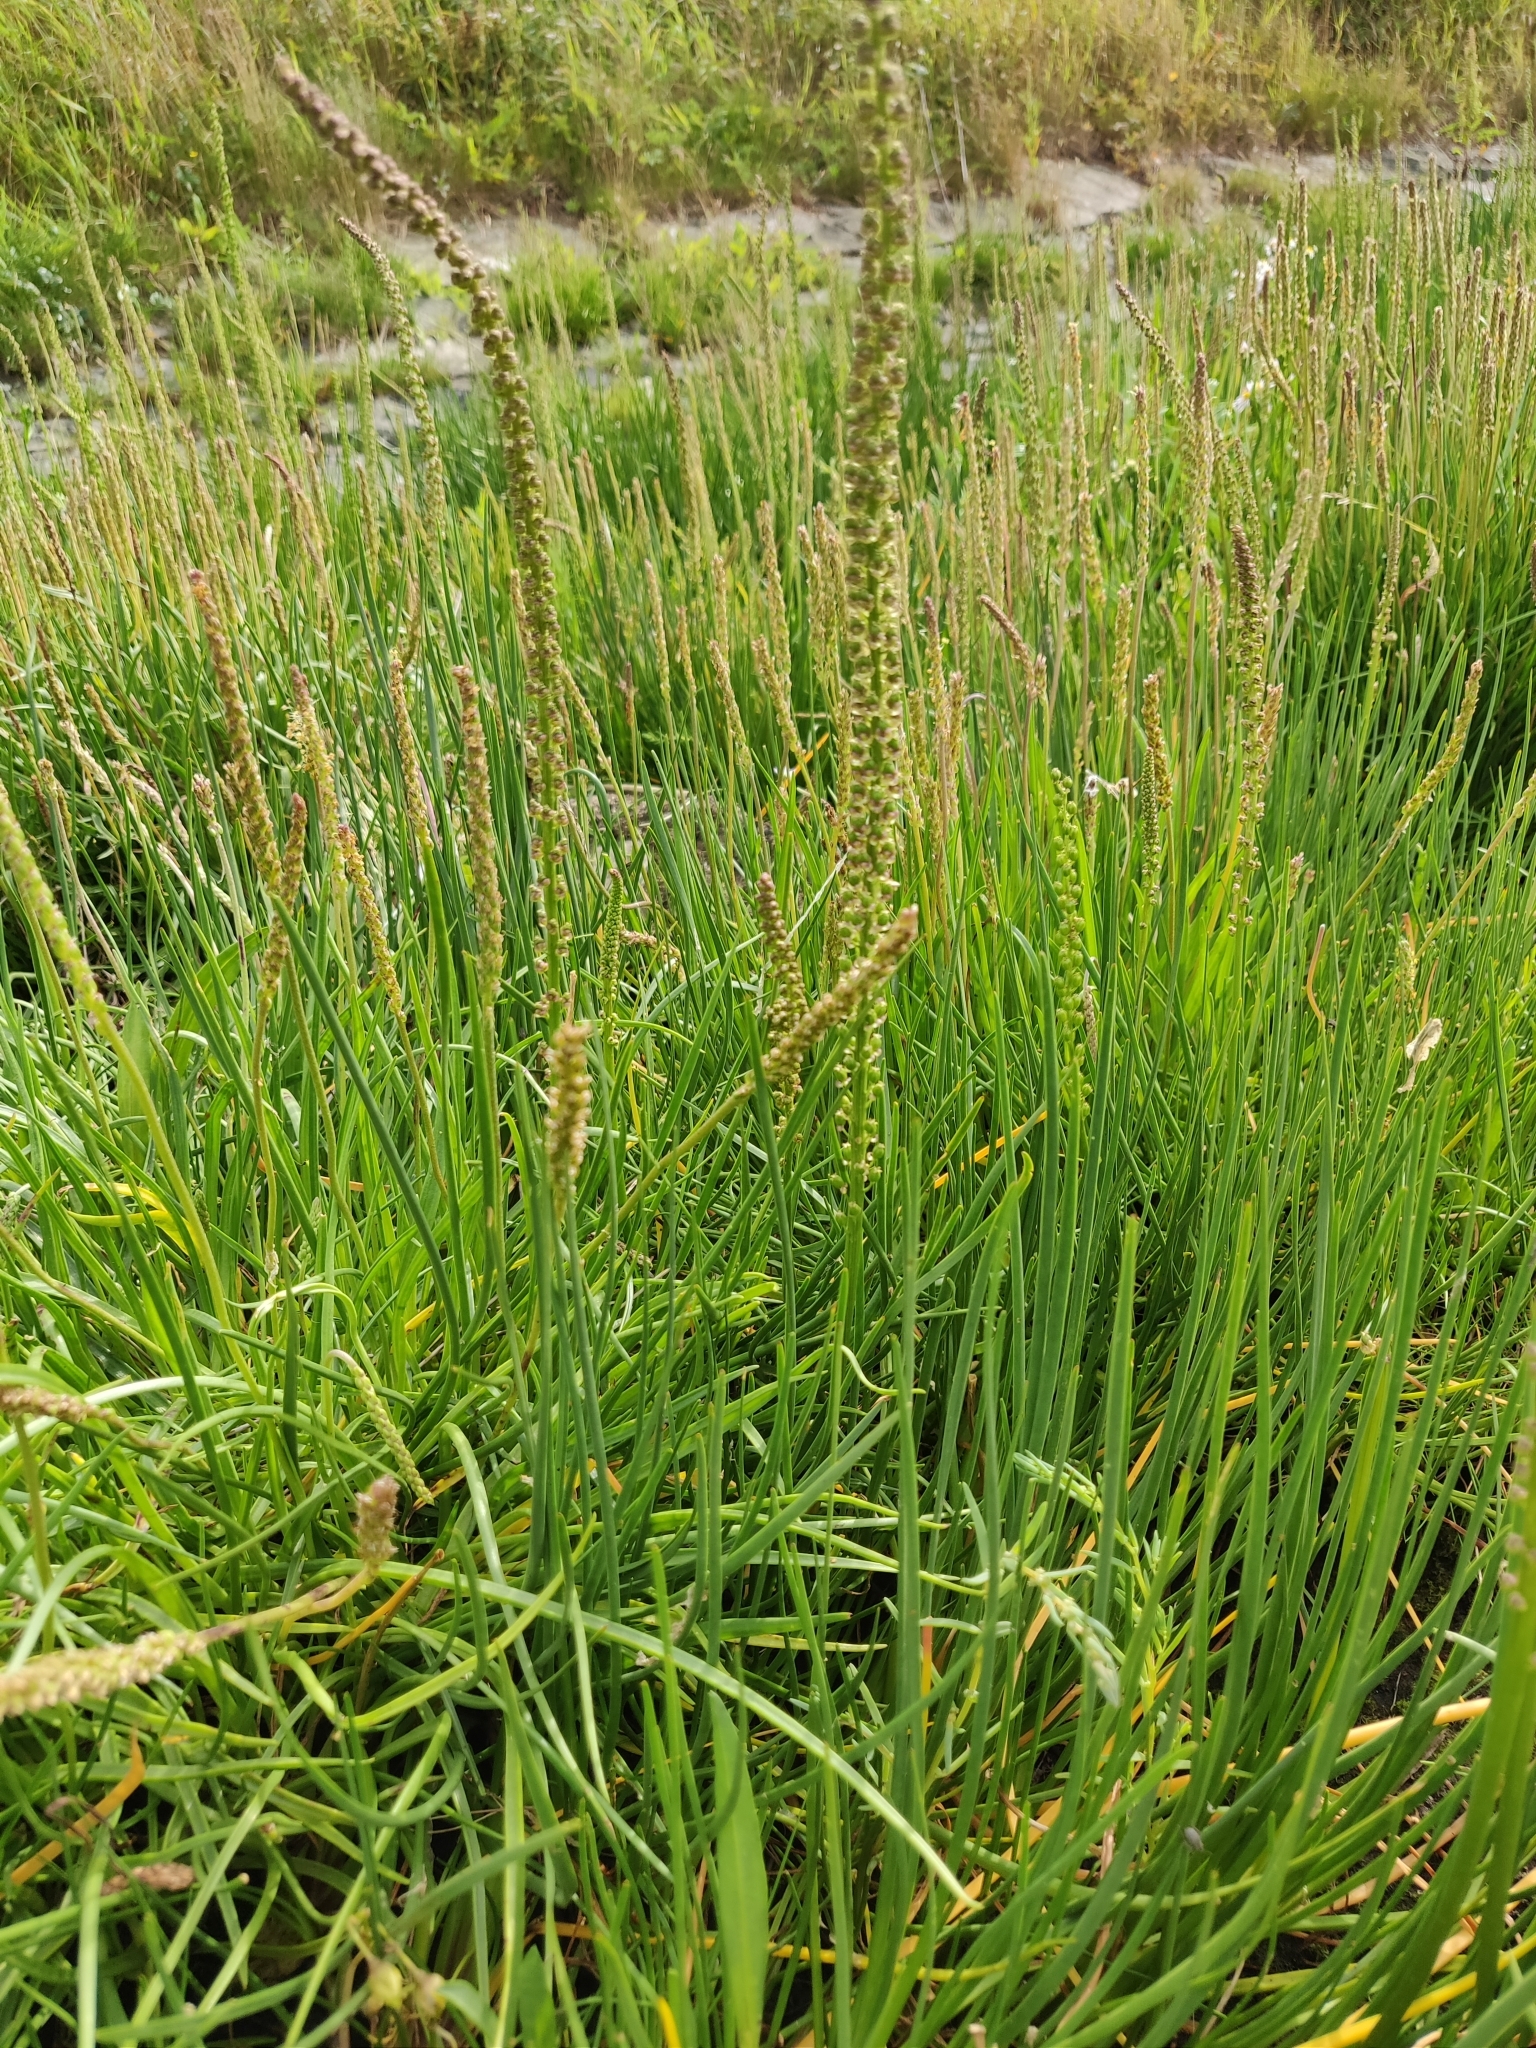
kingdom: Plantae
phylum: Tracheophyta
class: Liliopsida
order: Alismatales
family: Juncaginaceae
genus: Triglochin
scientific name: Triglochin maritima
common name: Sea arrowgrass
